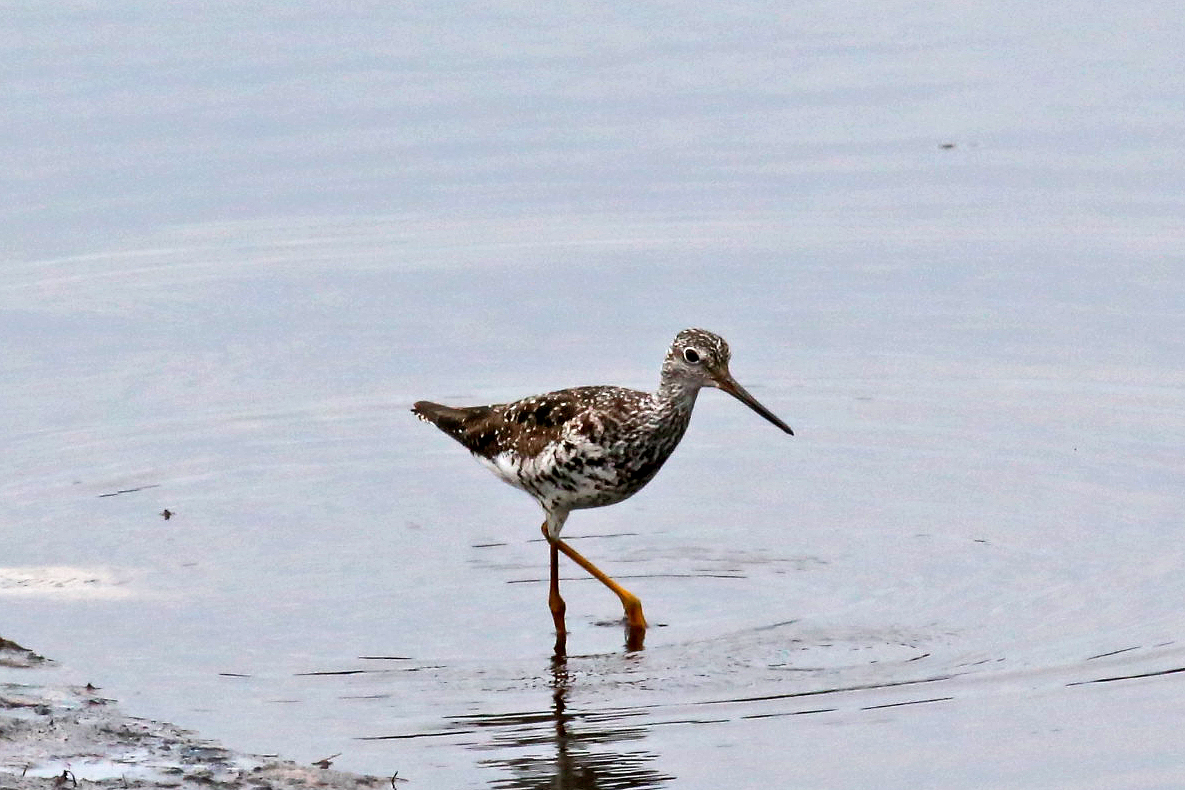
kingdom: Animalia
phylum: Chordata
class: Aves
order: Charadriiformes
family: Scolopacidae
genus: Tringa
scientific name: Tringa melanoleuca
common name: Greater yellowlegs
